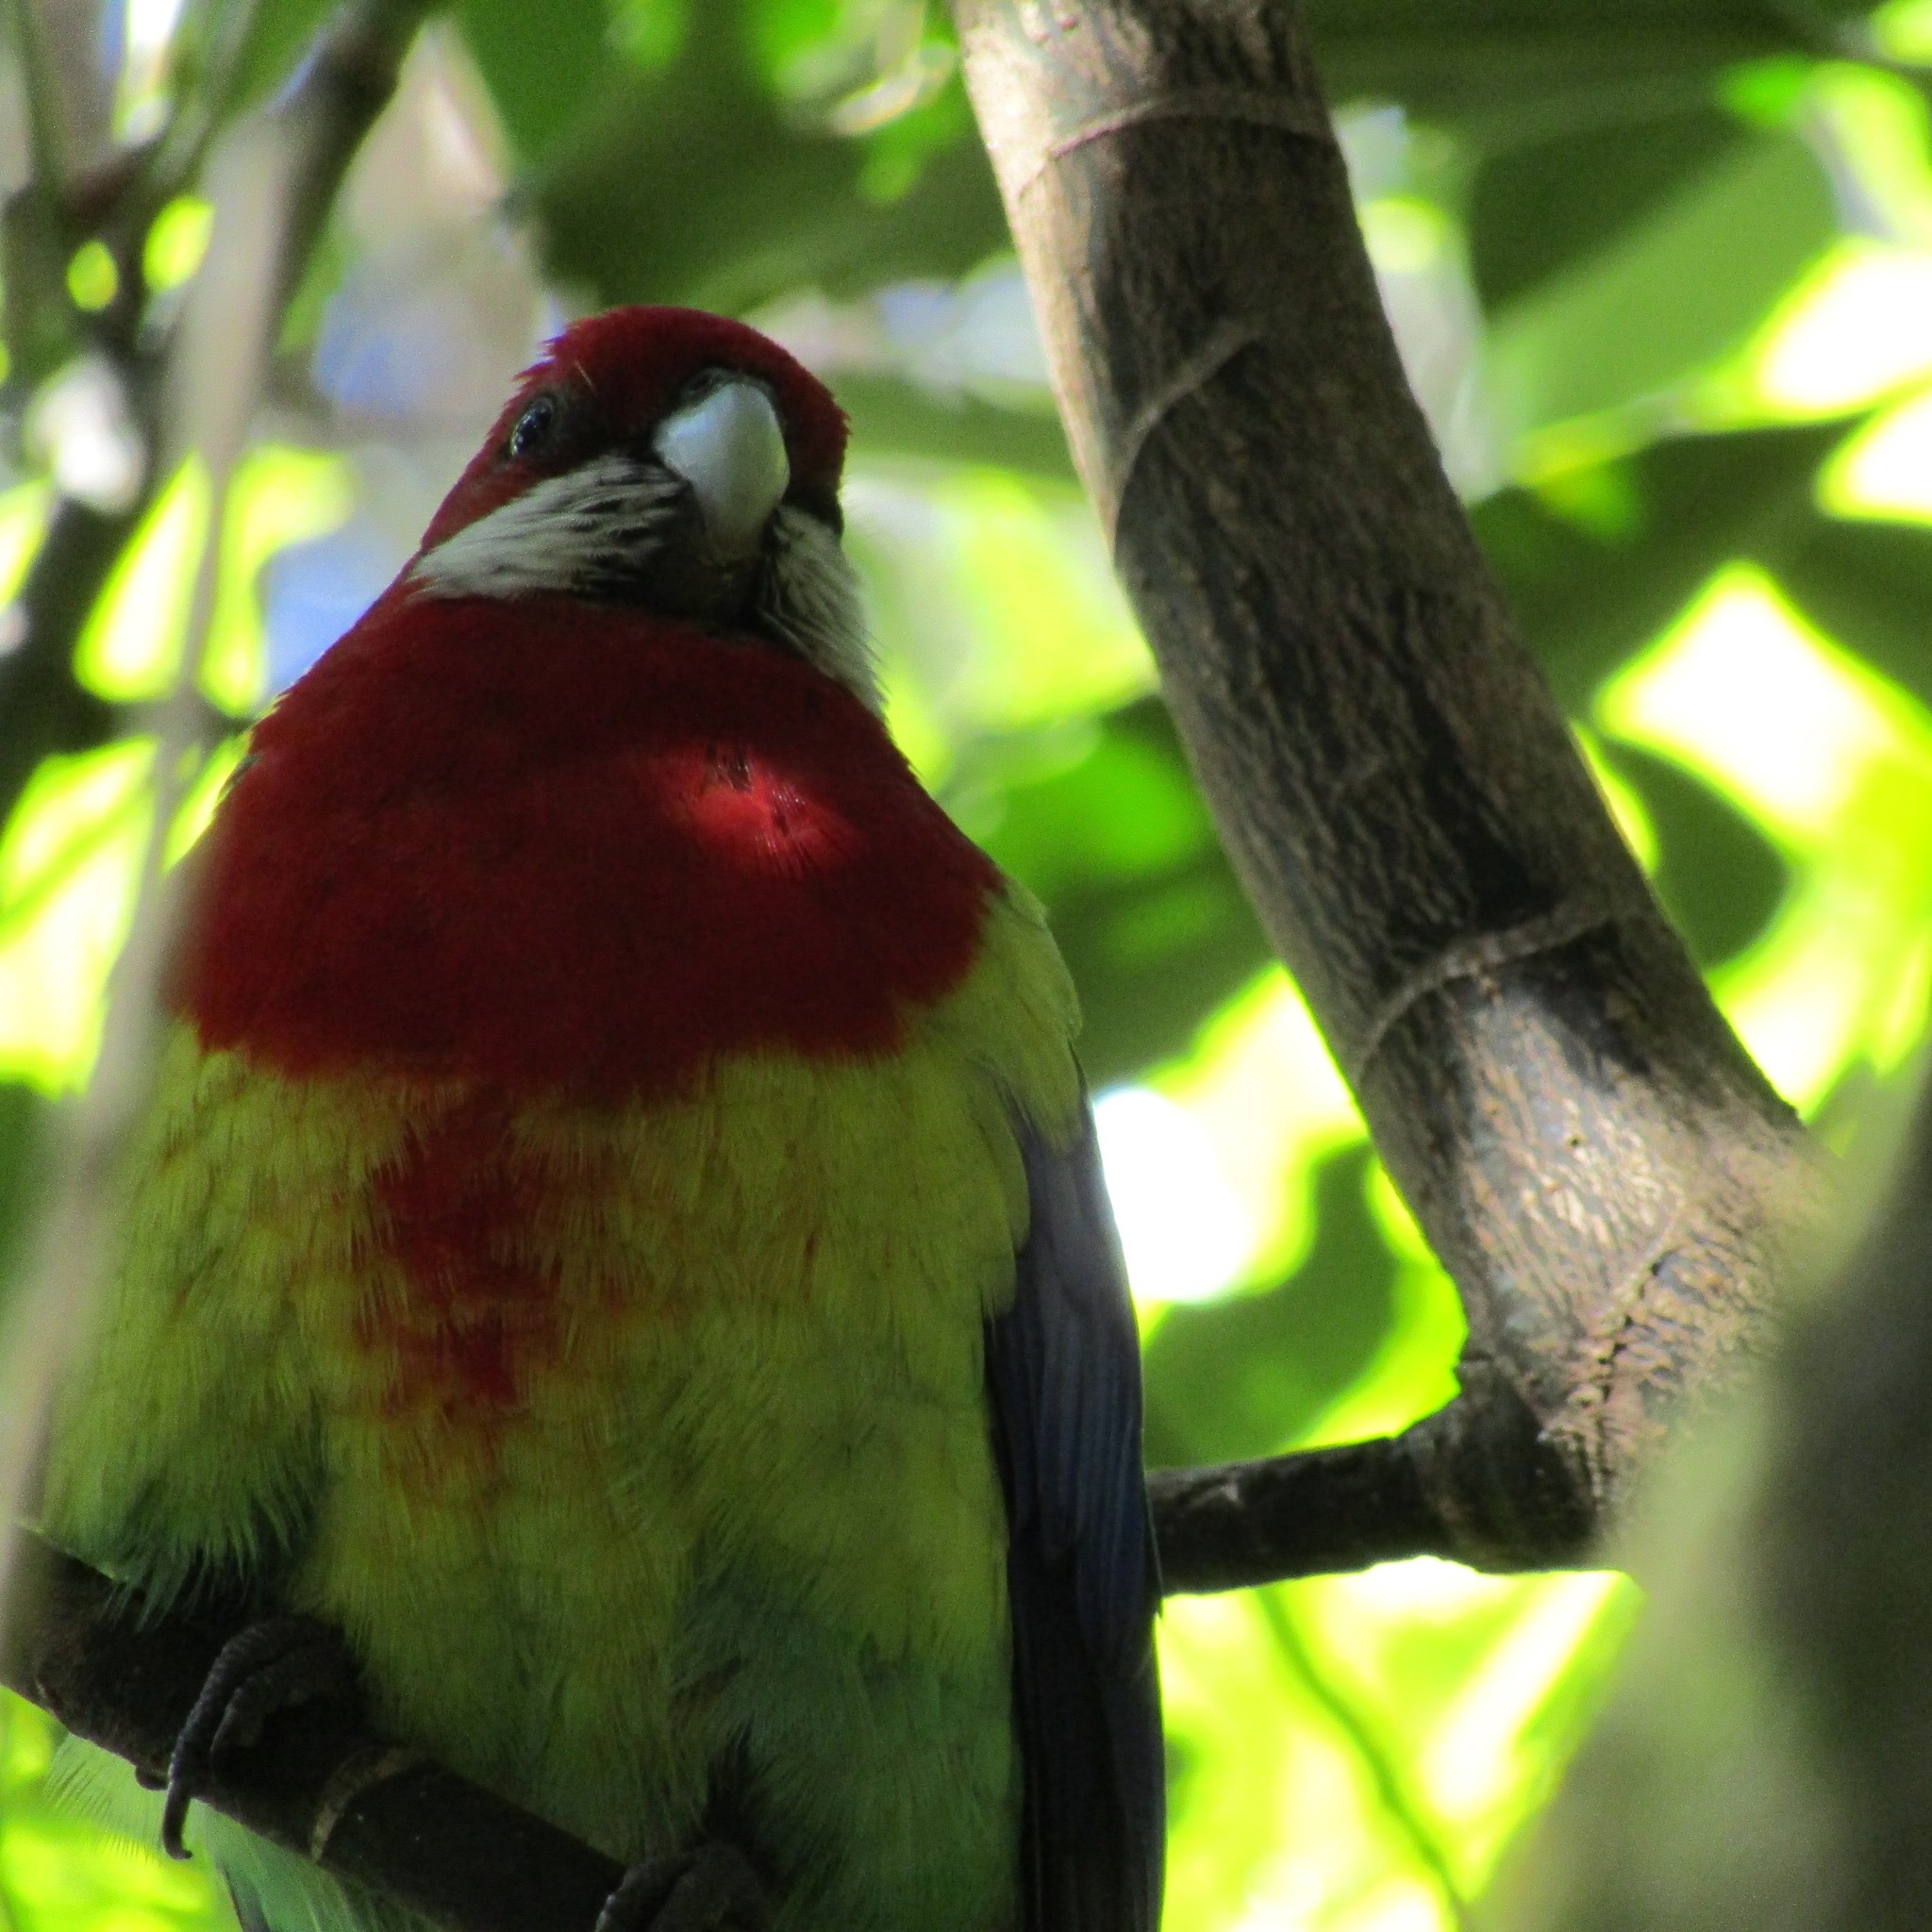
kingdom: Animalia
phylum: Chordata
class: Aves
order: Psittaciformes
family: Psittacidae
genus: Platycercus
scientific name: Platycercus eximius
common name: Eastern rosella
